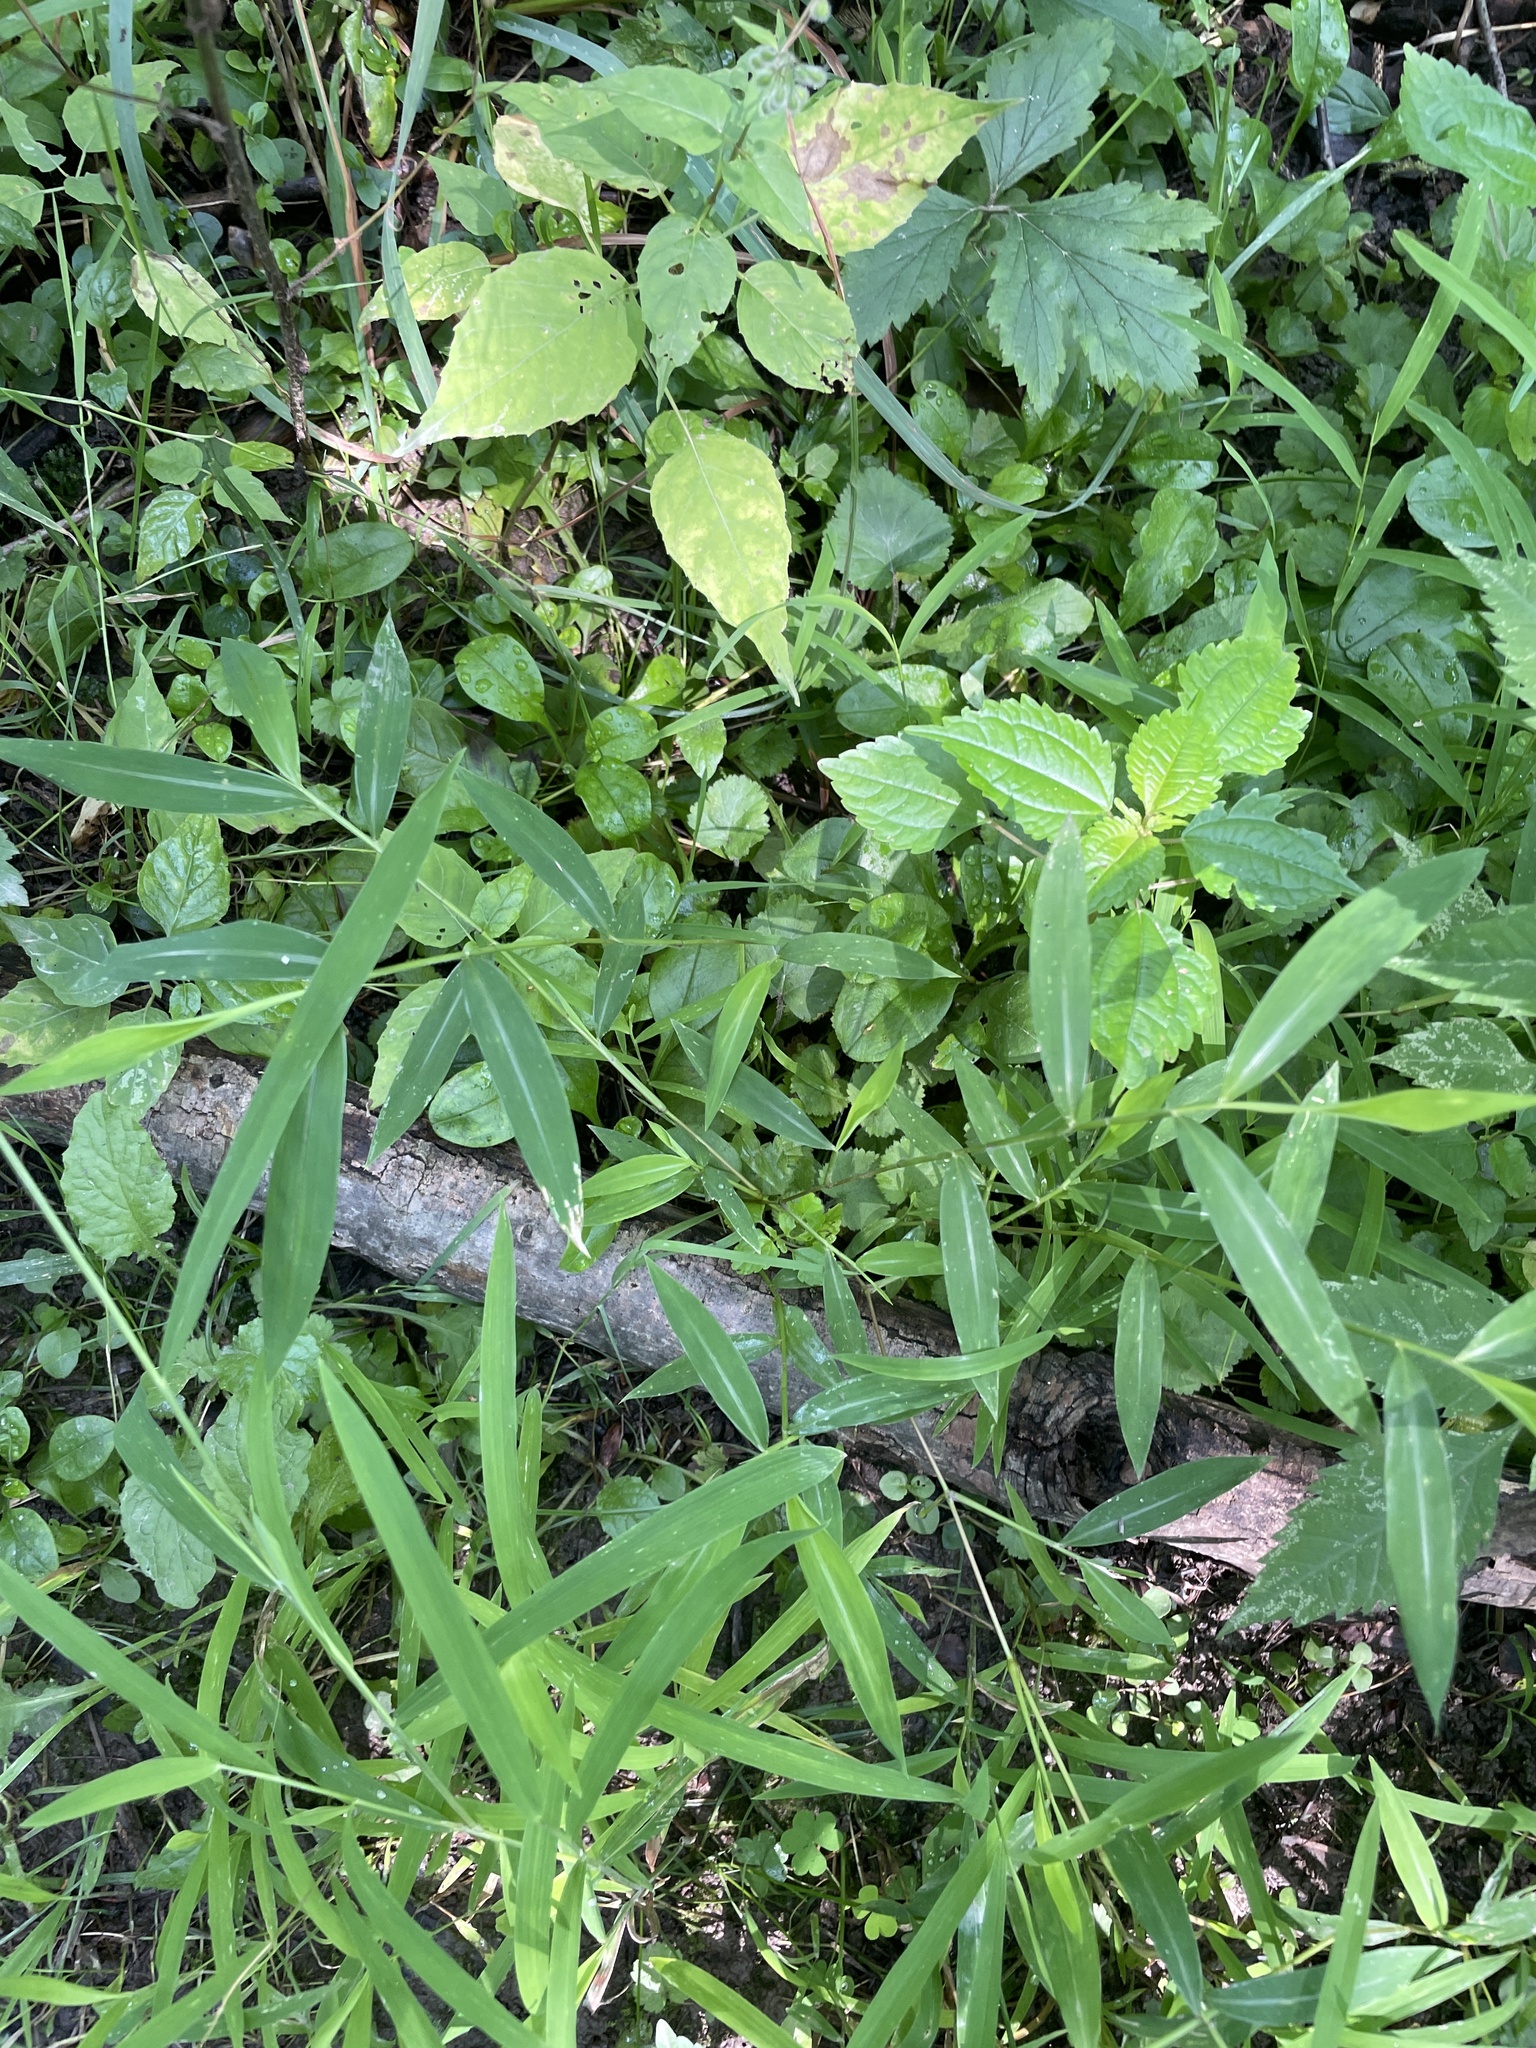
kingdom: Plantae
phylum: Tracheophyta
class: Liliopsida
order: Poales
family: Poaceae
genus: Microstegium
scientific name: Microstegium vimineum
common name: Japanese stiltgrass
